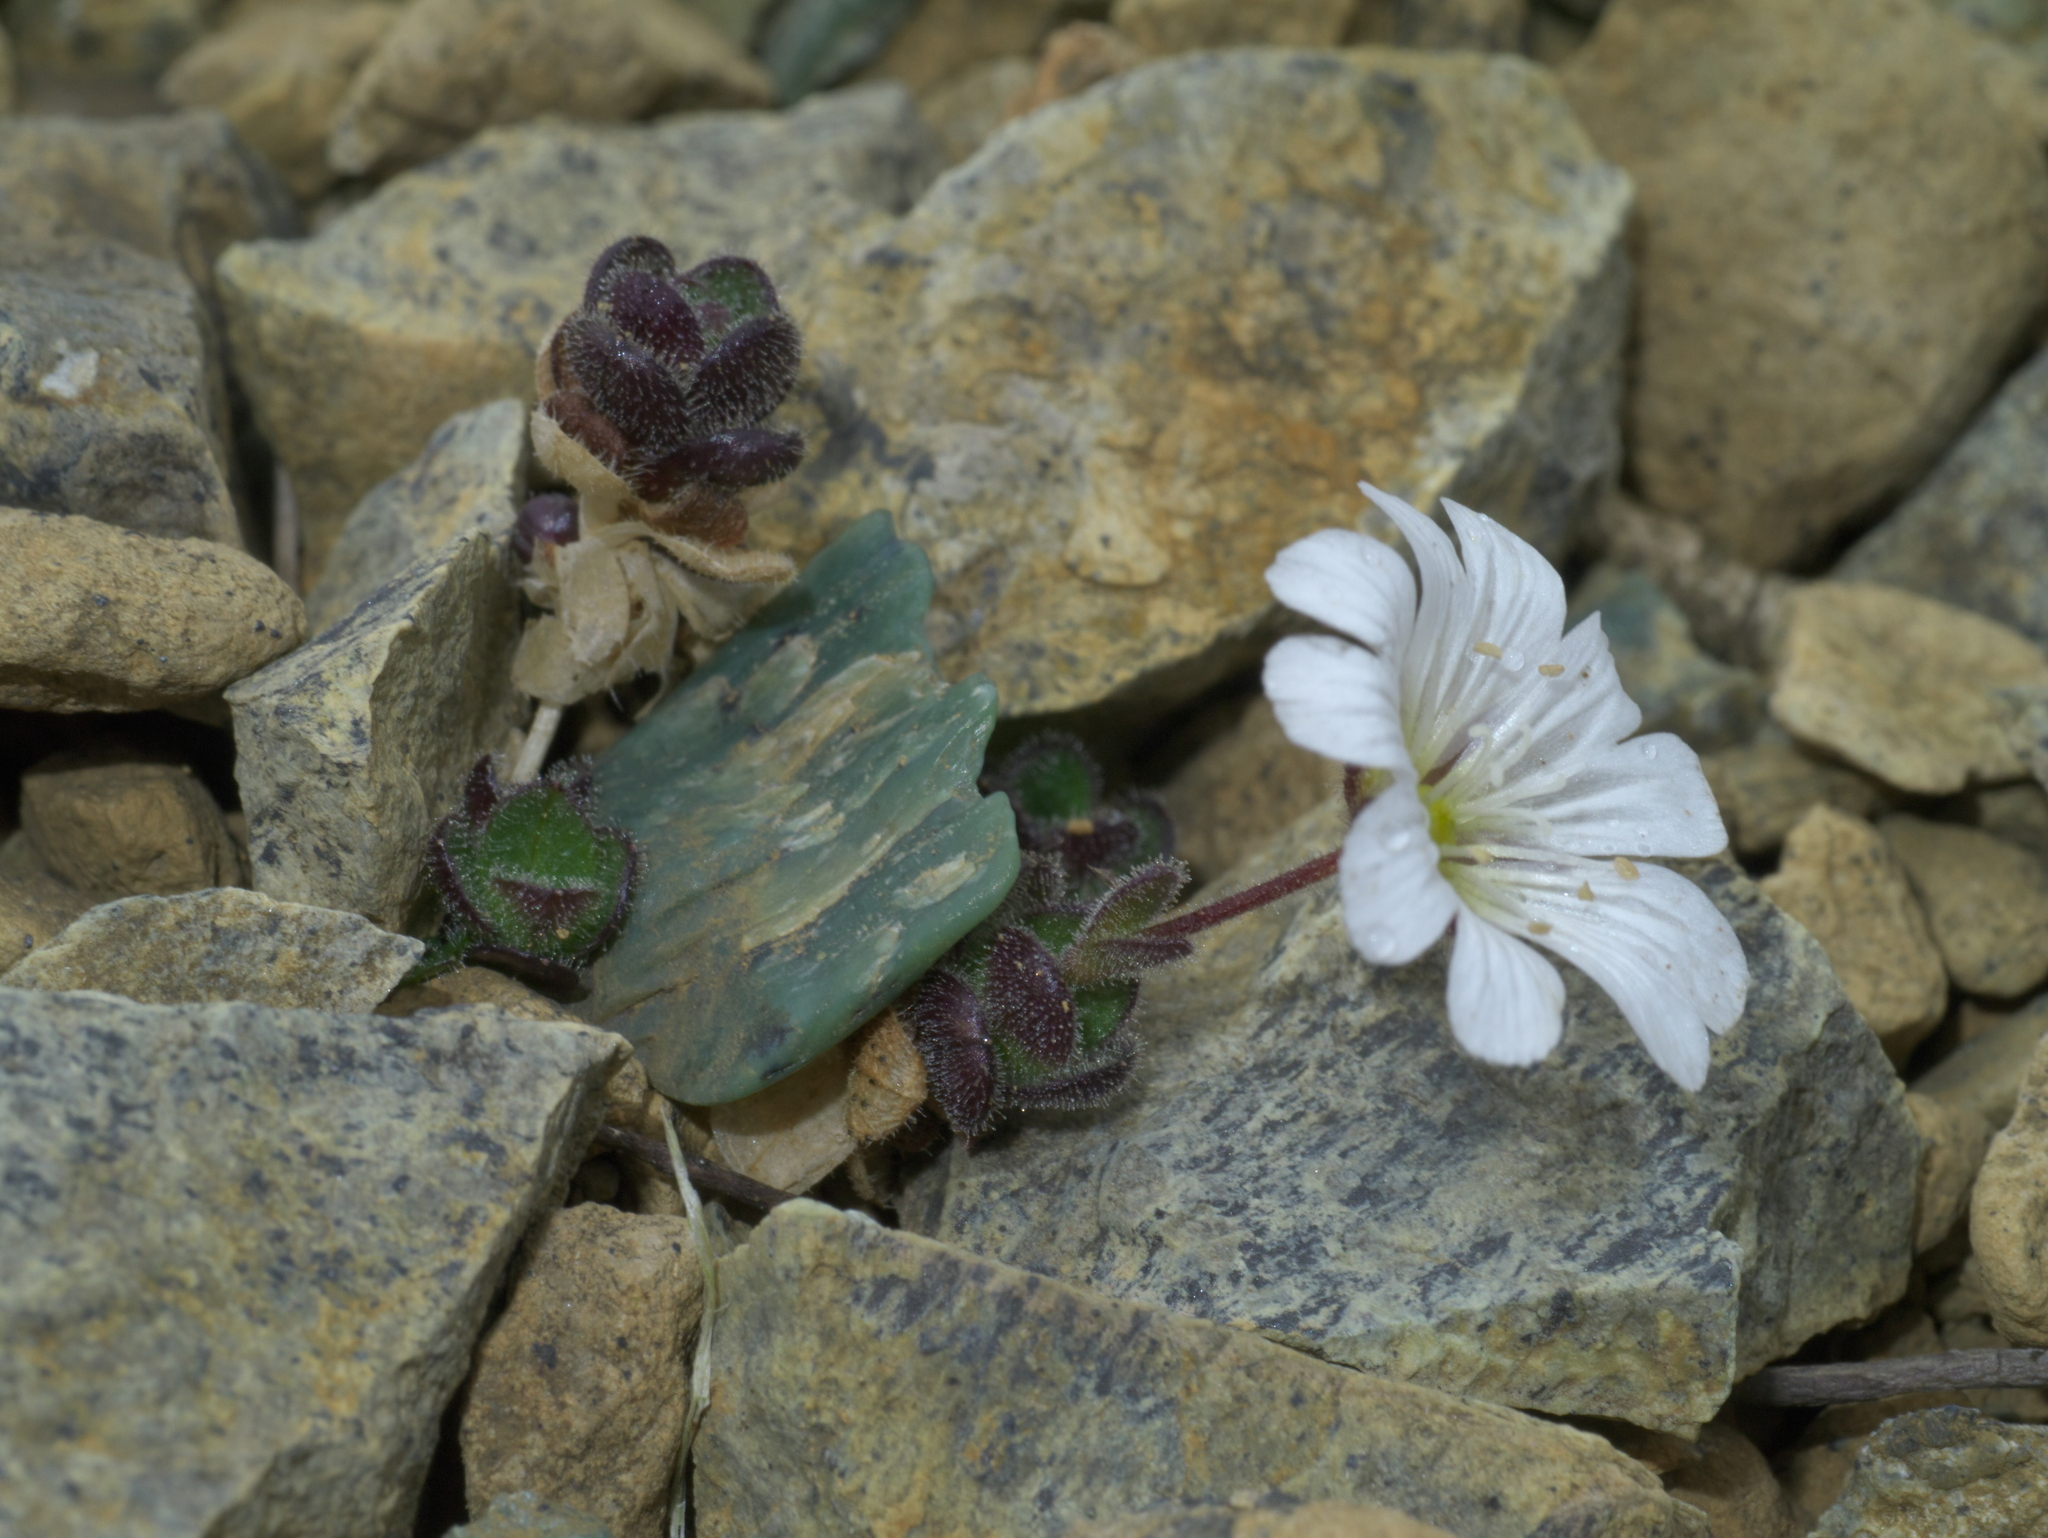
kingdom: Plantae
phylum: Tracheophyta
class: Magnoliopsida
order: Caryophyllales
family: Caryophyllaceae
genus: Cerastium
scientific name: Cerastium nigrescens
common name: Shetland mouse-ear
